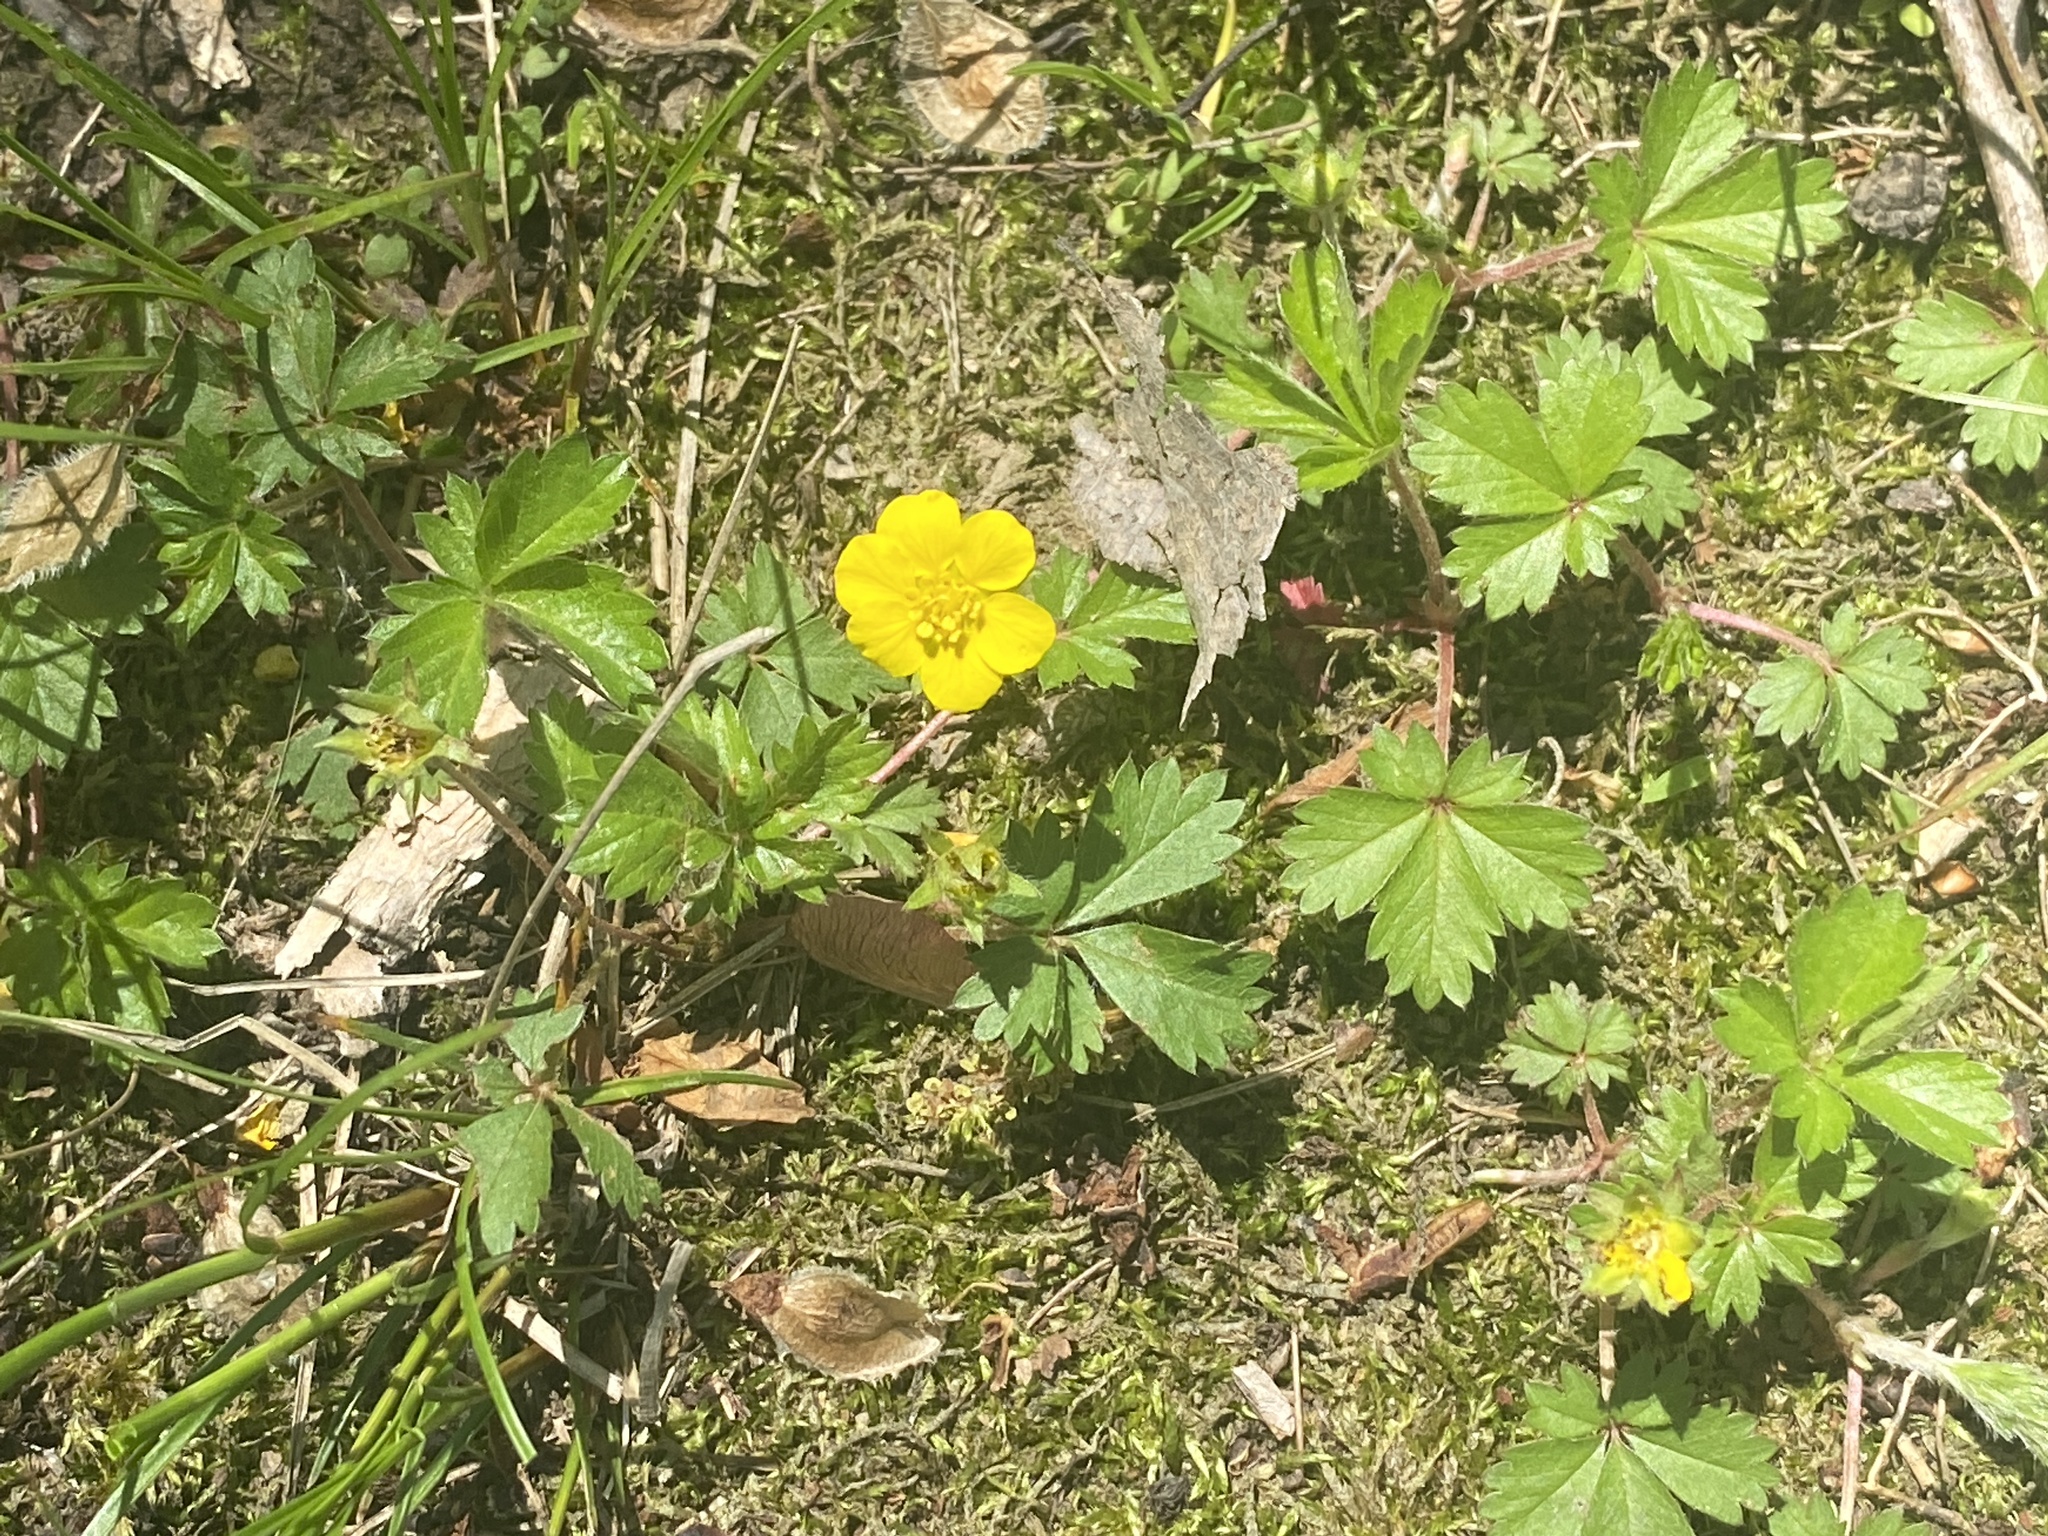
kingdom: Plantae
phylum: Tracheophyta
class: Magnoliopsida
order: Rosales
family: Rosaceae
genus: Potentilla
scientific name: Potentilla canadensis
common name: Canada cinquefoil
